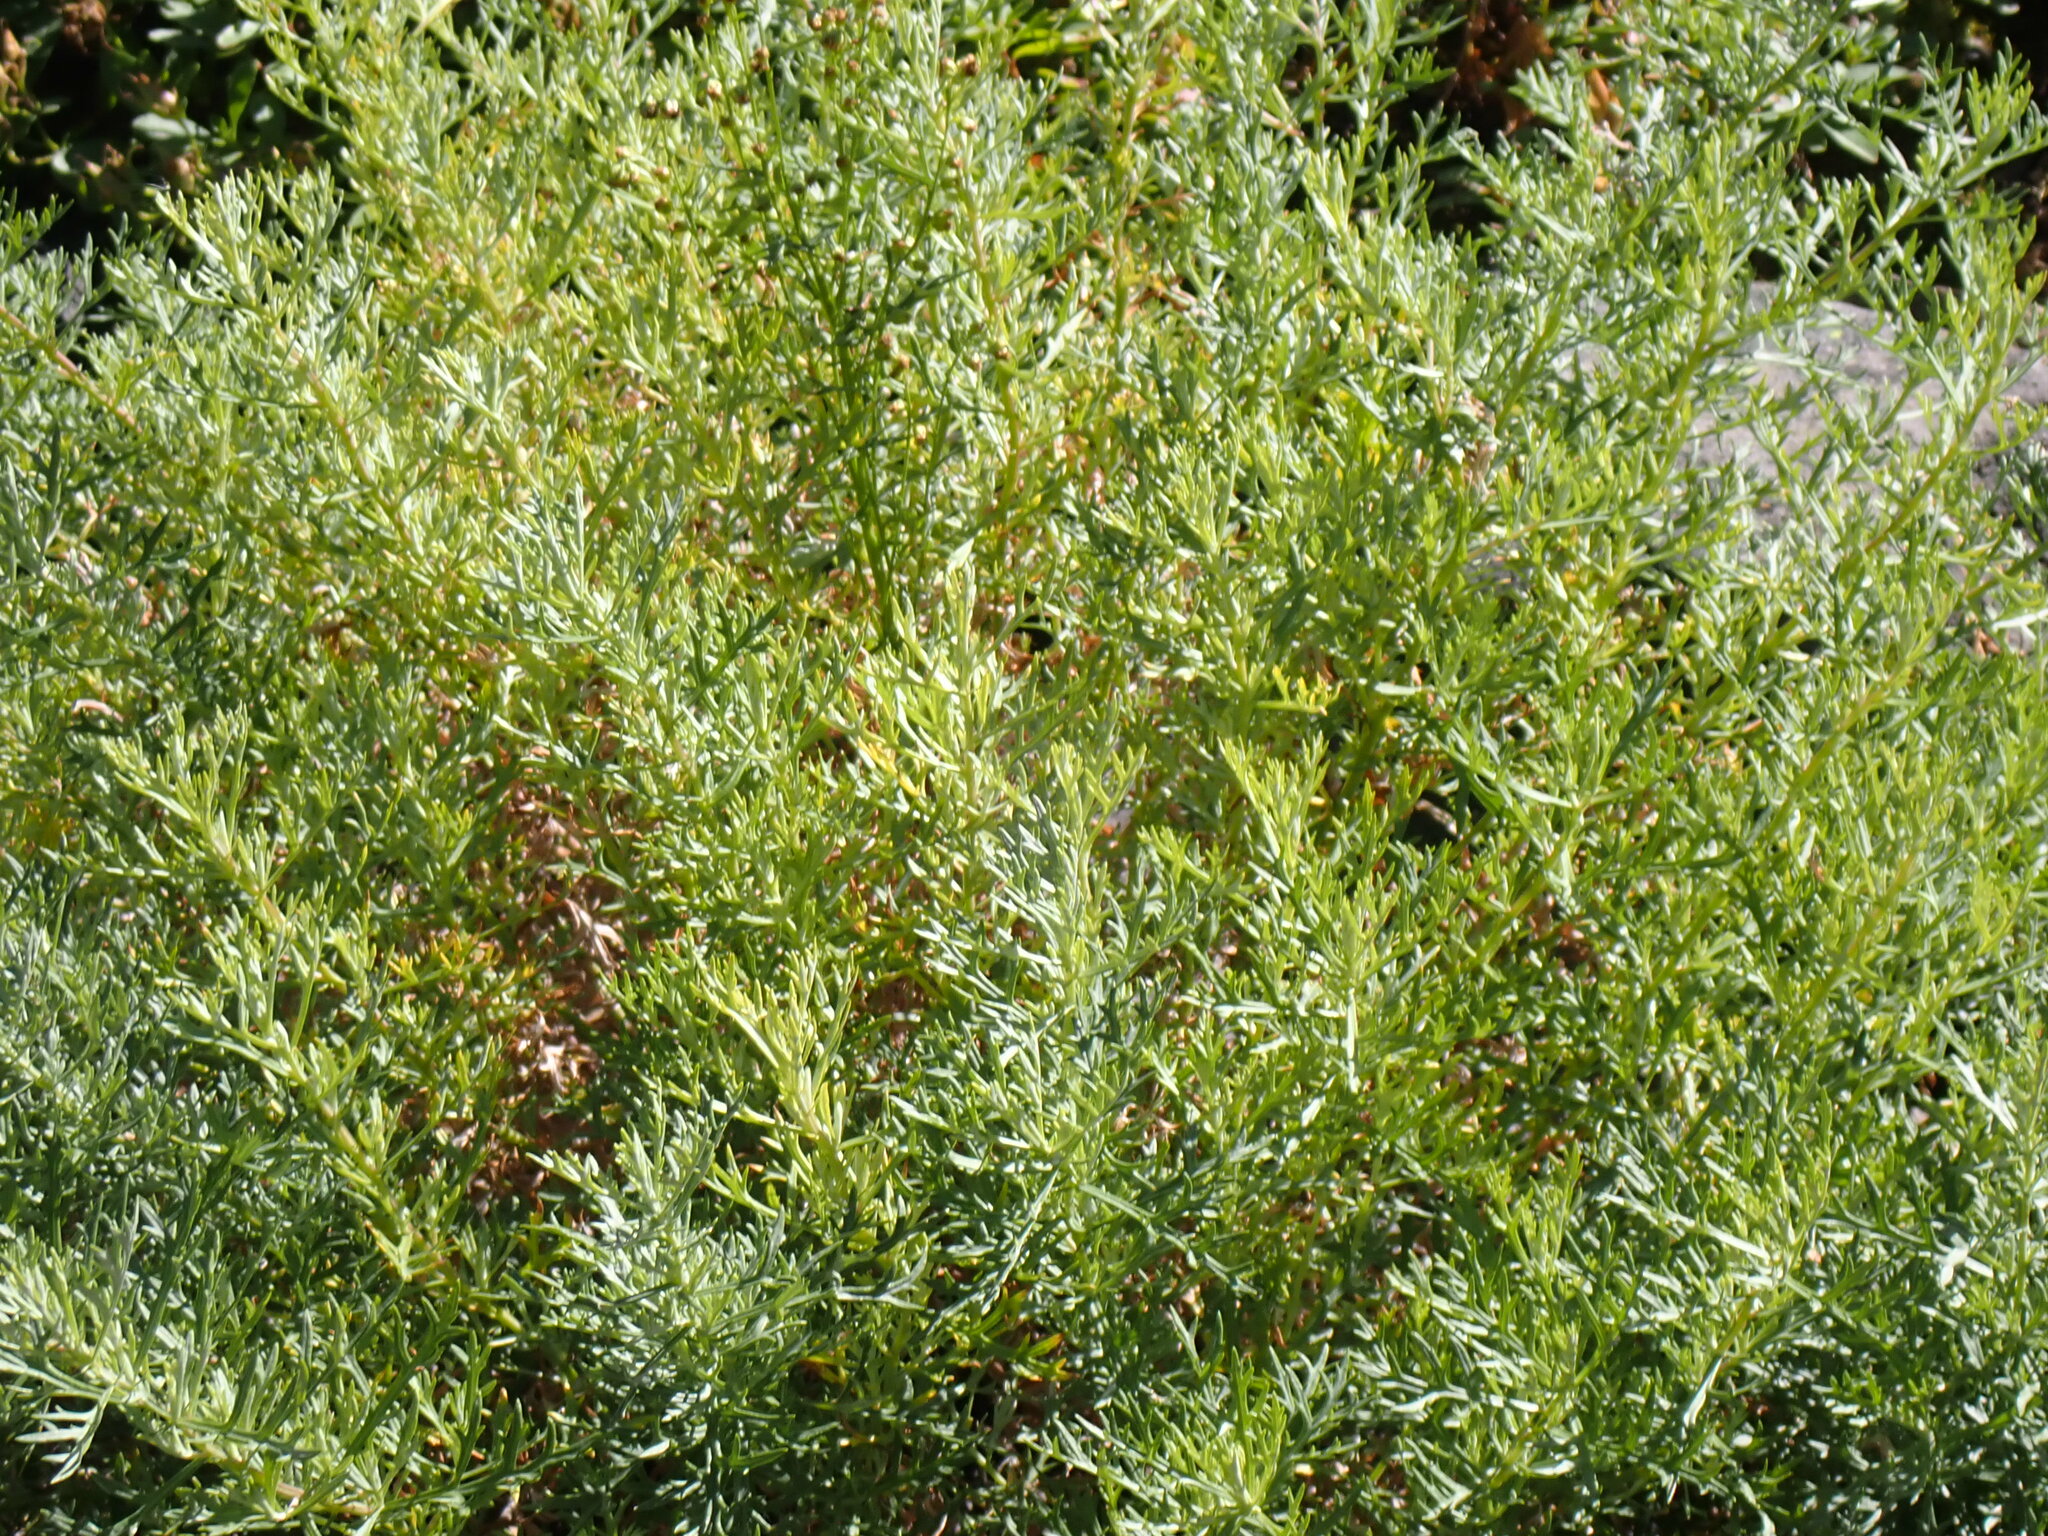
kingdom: Plantae
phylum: Tracheophyta
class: Magnoliopsida
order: Asterales
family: Asteraceae
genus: Artemisia
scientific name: Artemisia michauxiana
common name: Lemon sagewort
